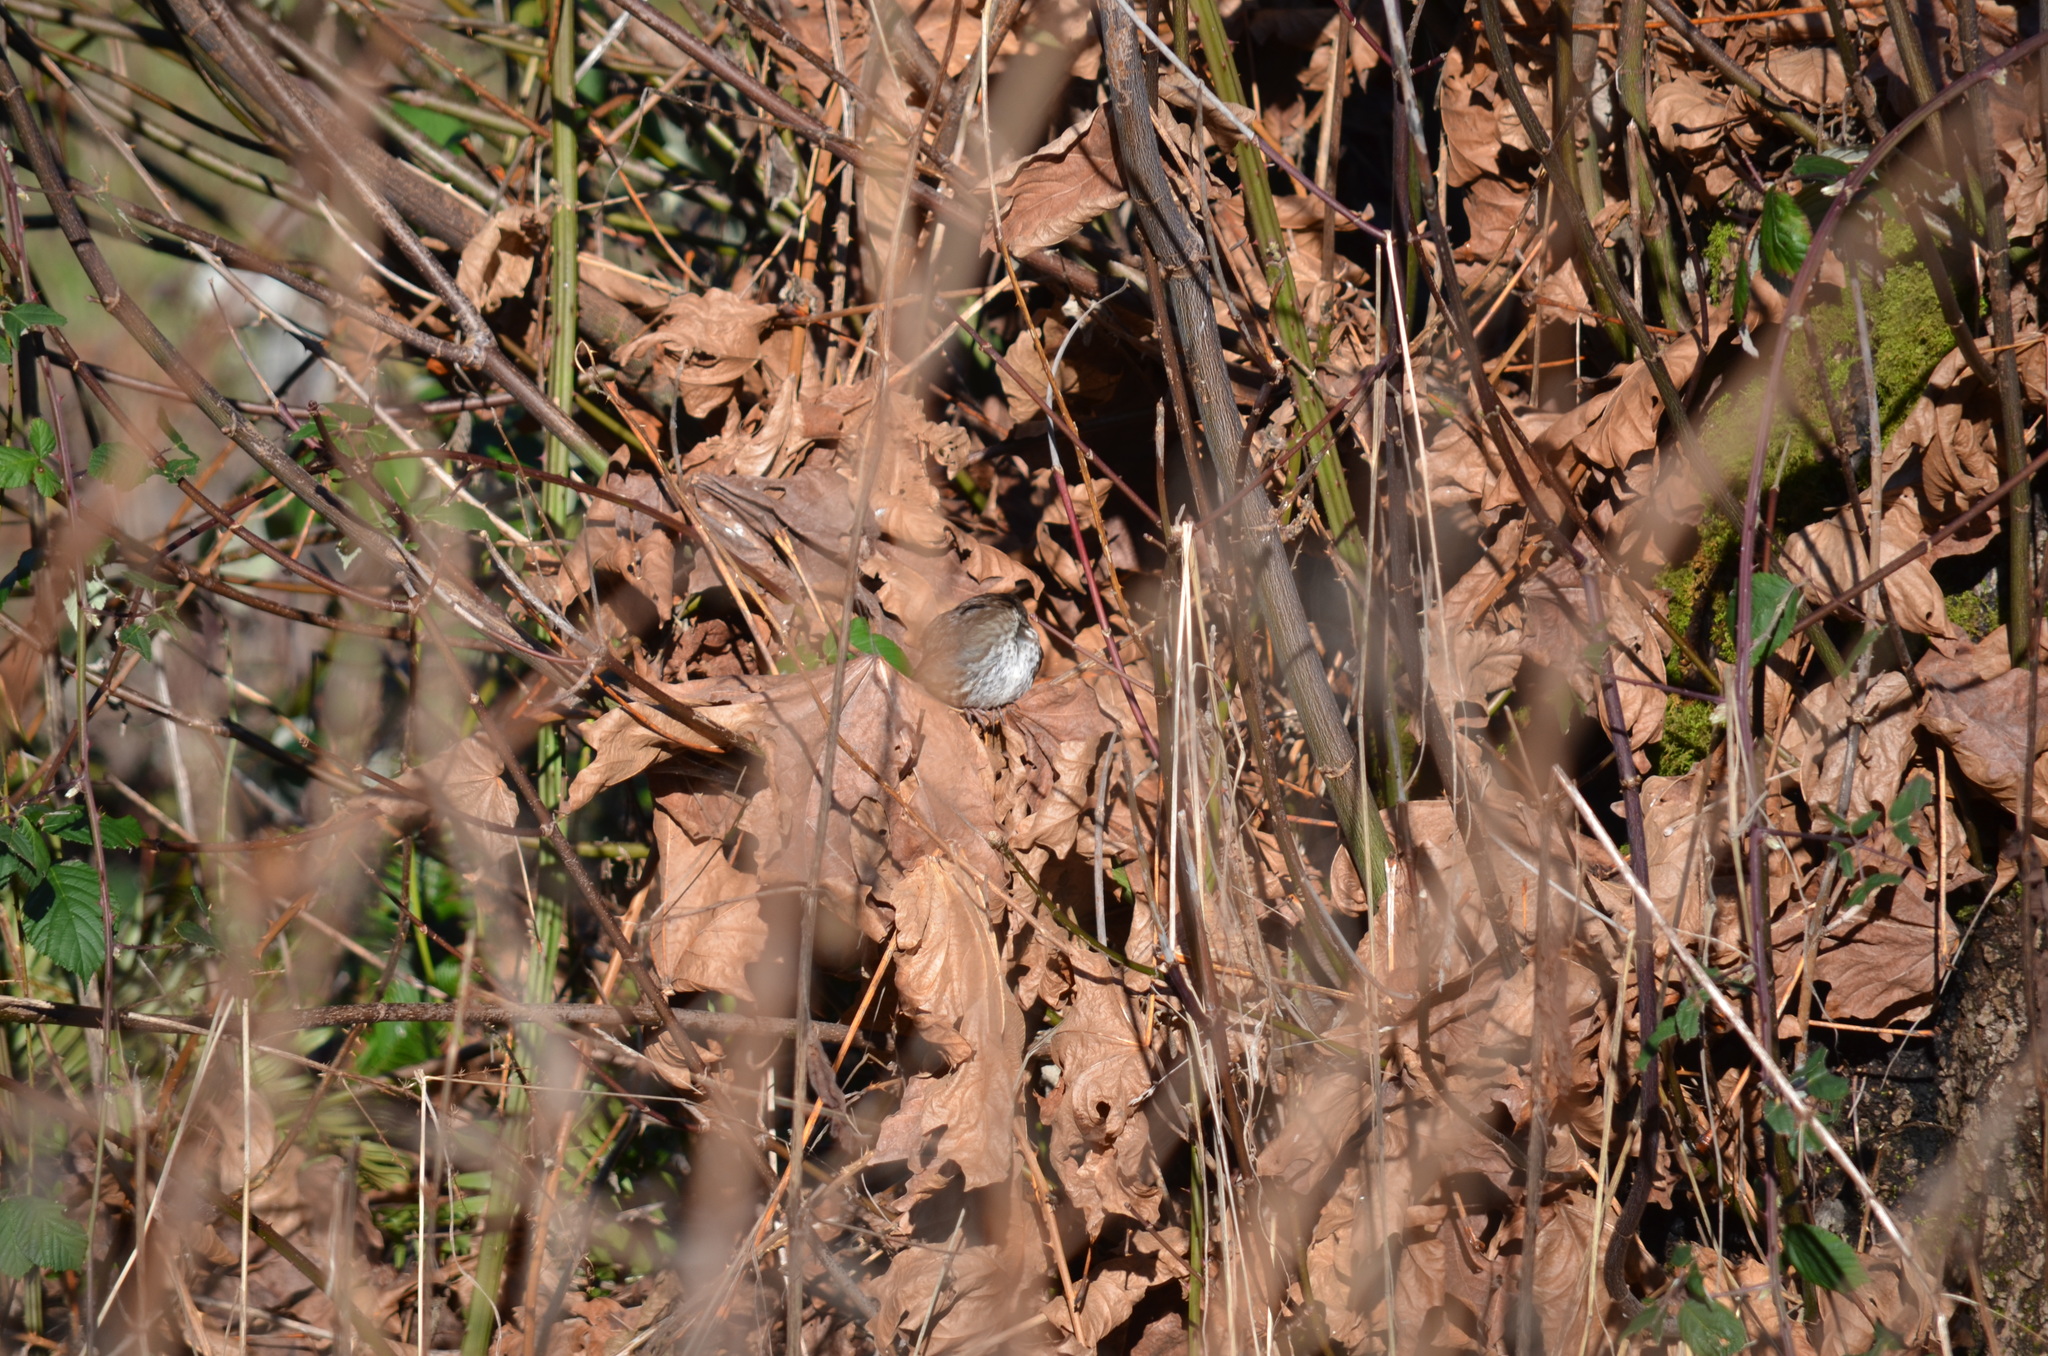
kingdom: Animalia
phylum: Chordata
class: Aves
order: Passeriformes
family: Passerellidae
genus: Passerella
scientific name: Passerella iliaca
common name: Fox sparrow
